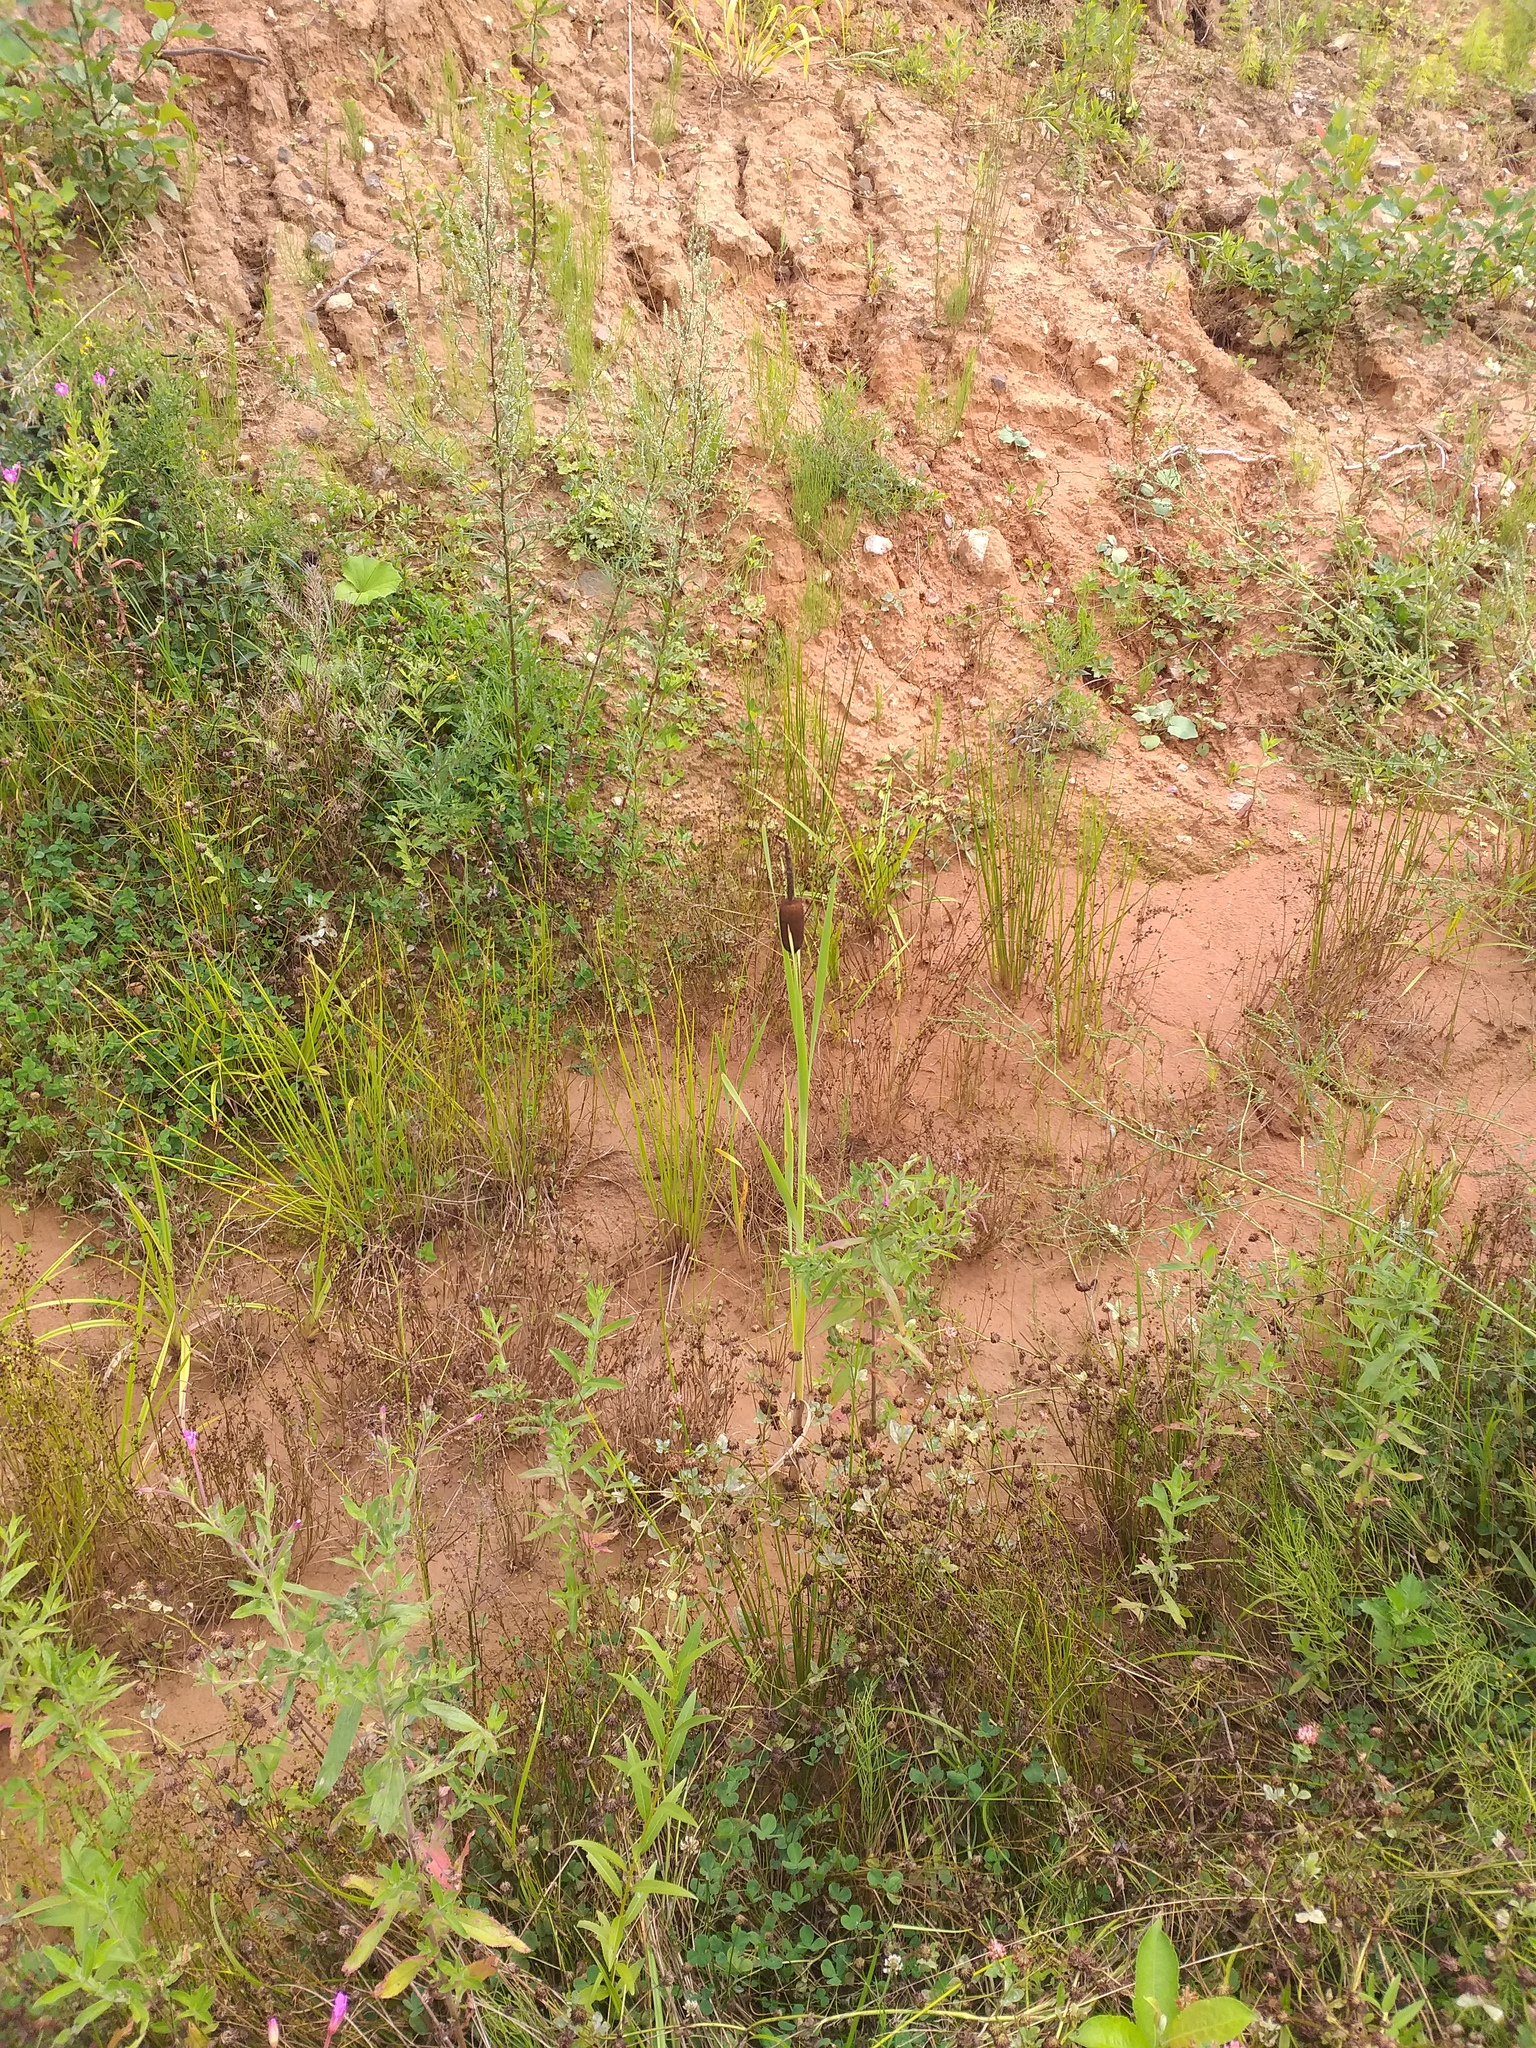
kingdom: Plantae
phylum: Tracheophyta
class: Liliopsida
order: Poales
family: Typhaceae
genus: Typha
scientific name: Typha latifolia
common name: Broadleaf cattail
